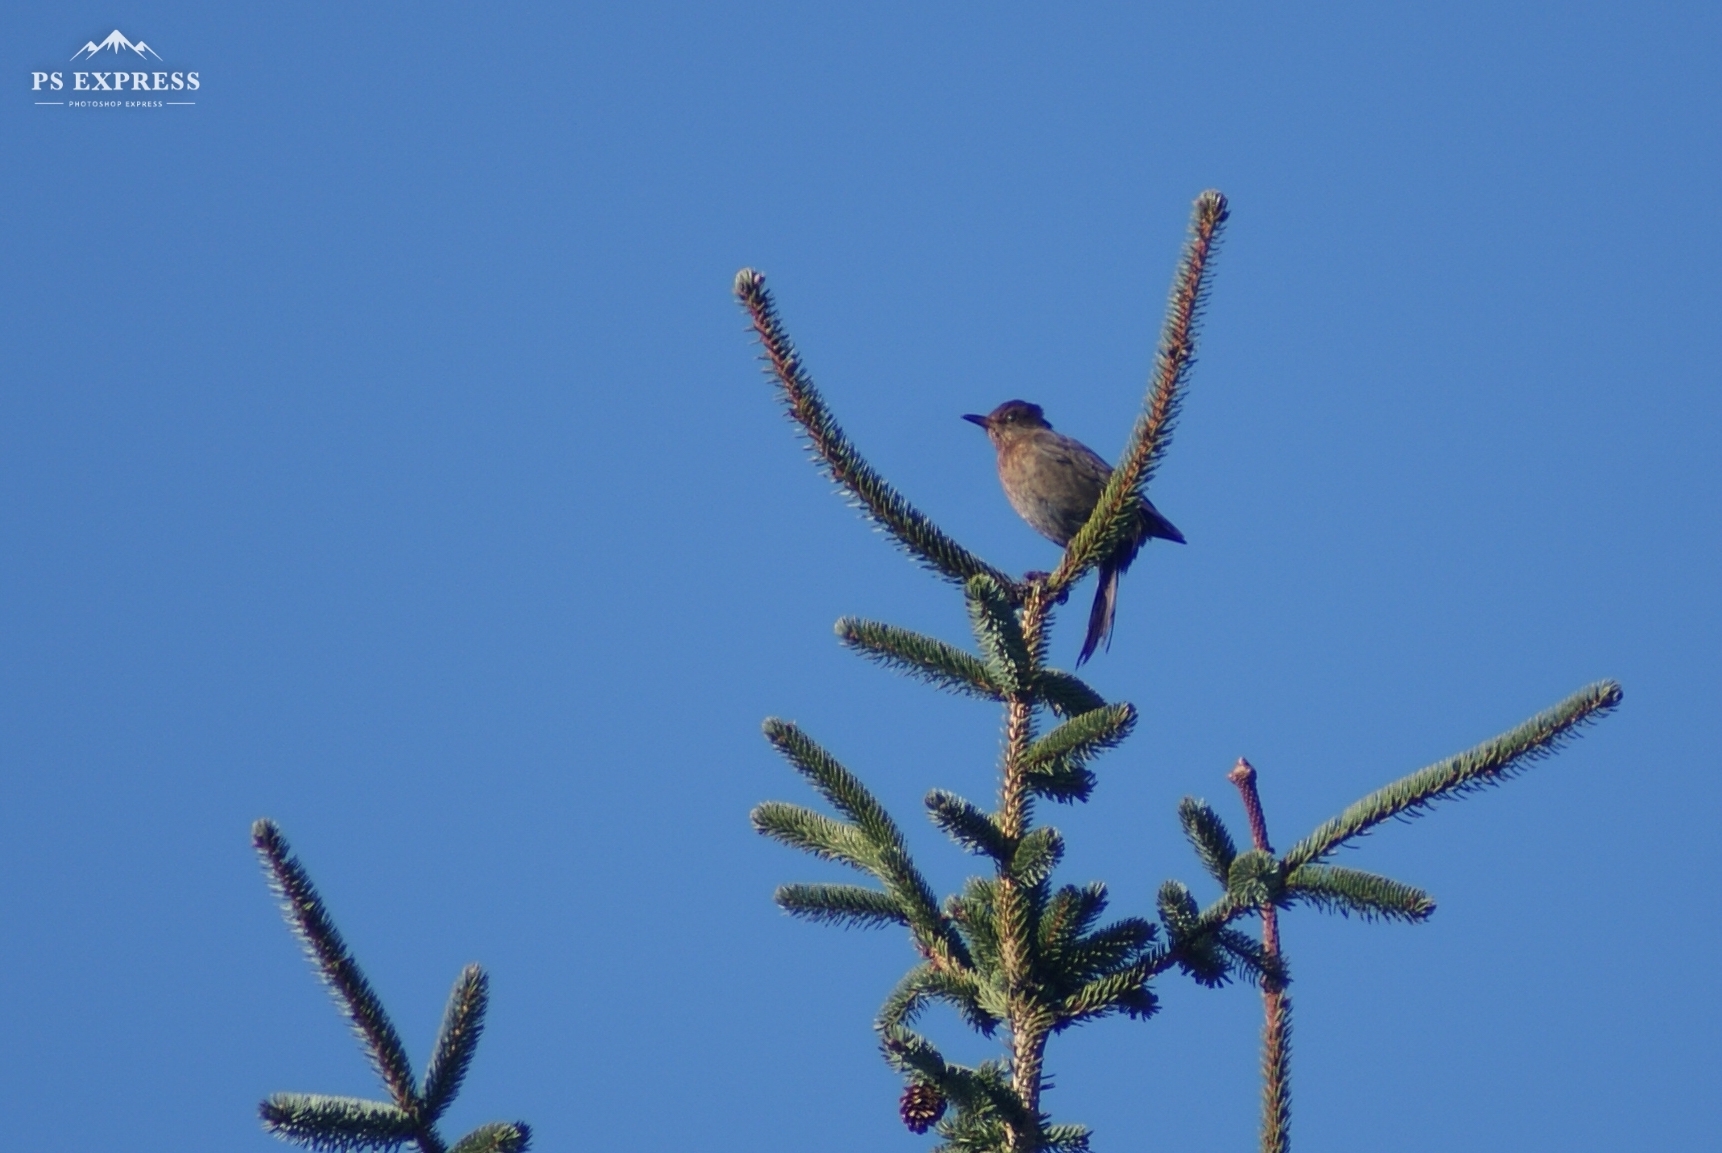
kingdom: Animalia
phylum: Chordata
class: Aves
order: Passeriformes
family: Turdidae
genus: Turdus
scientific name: Turdus merula
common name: Common blackbird
